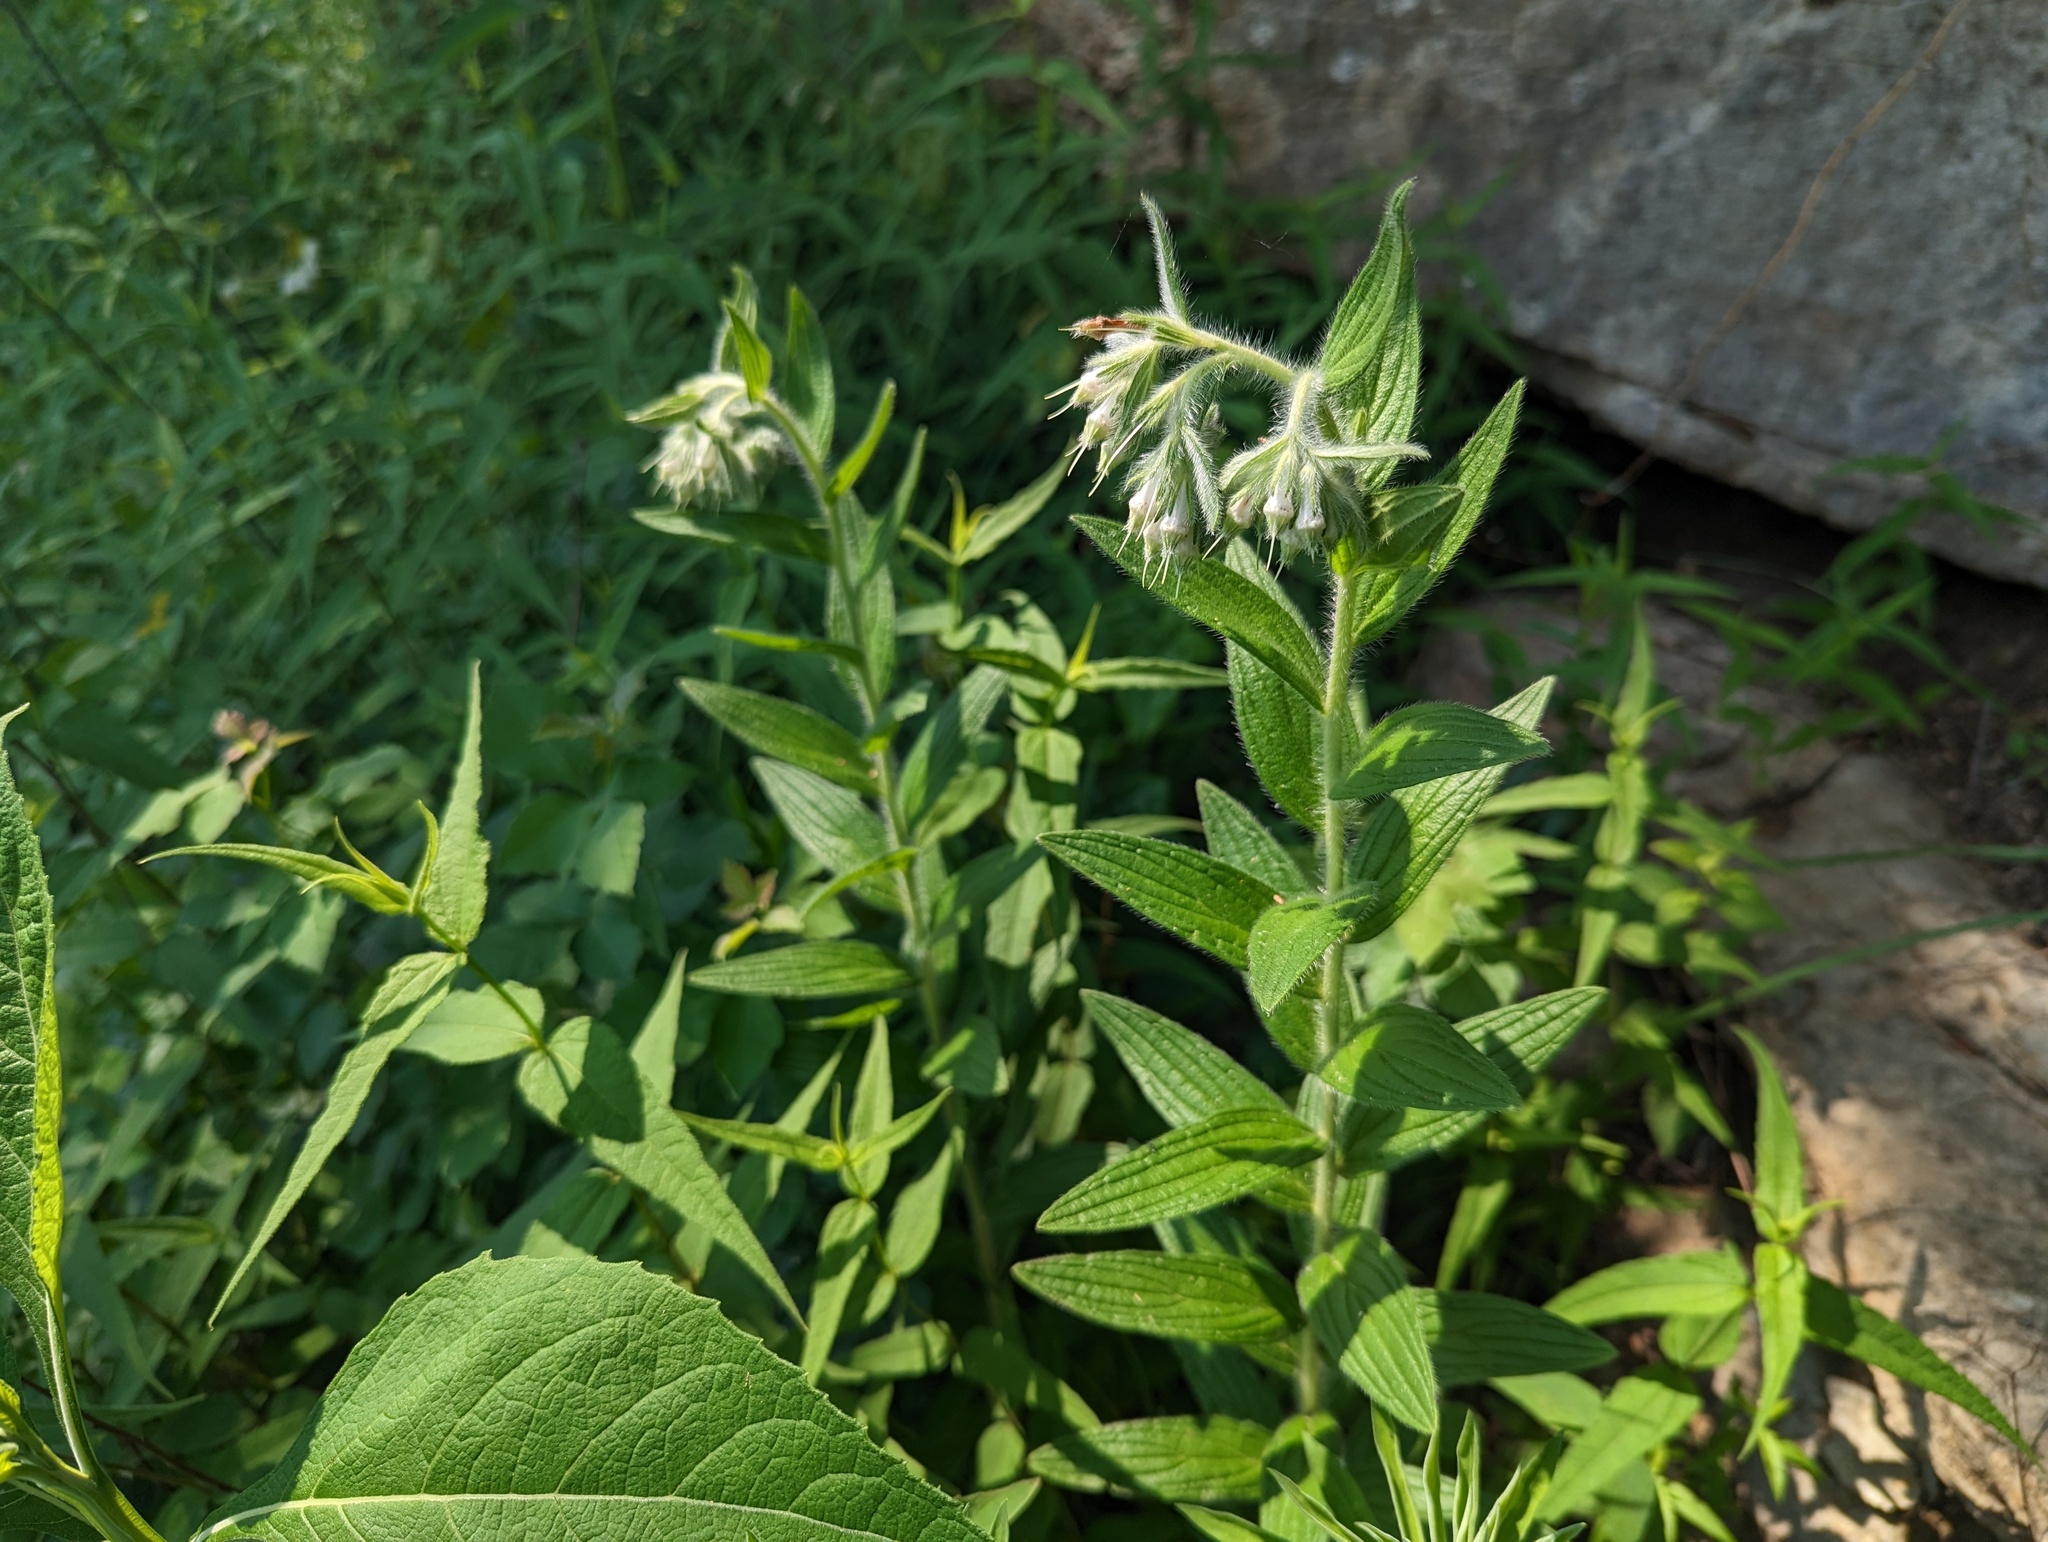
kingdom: Plantae
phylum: Tracheophyta
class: Magnoliopsida
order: Boraginales
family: Boraginaceae
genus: Lithospermum
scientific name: Lithospermum parviflorum
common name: Hairy false gromwell
